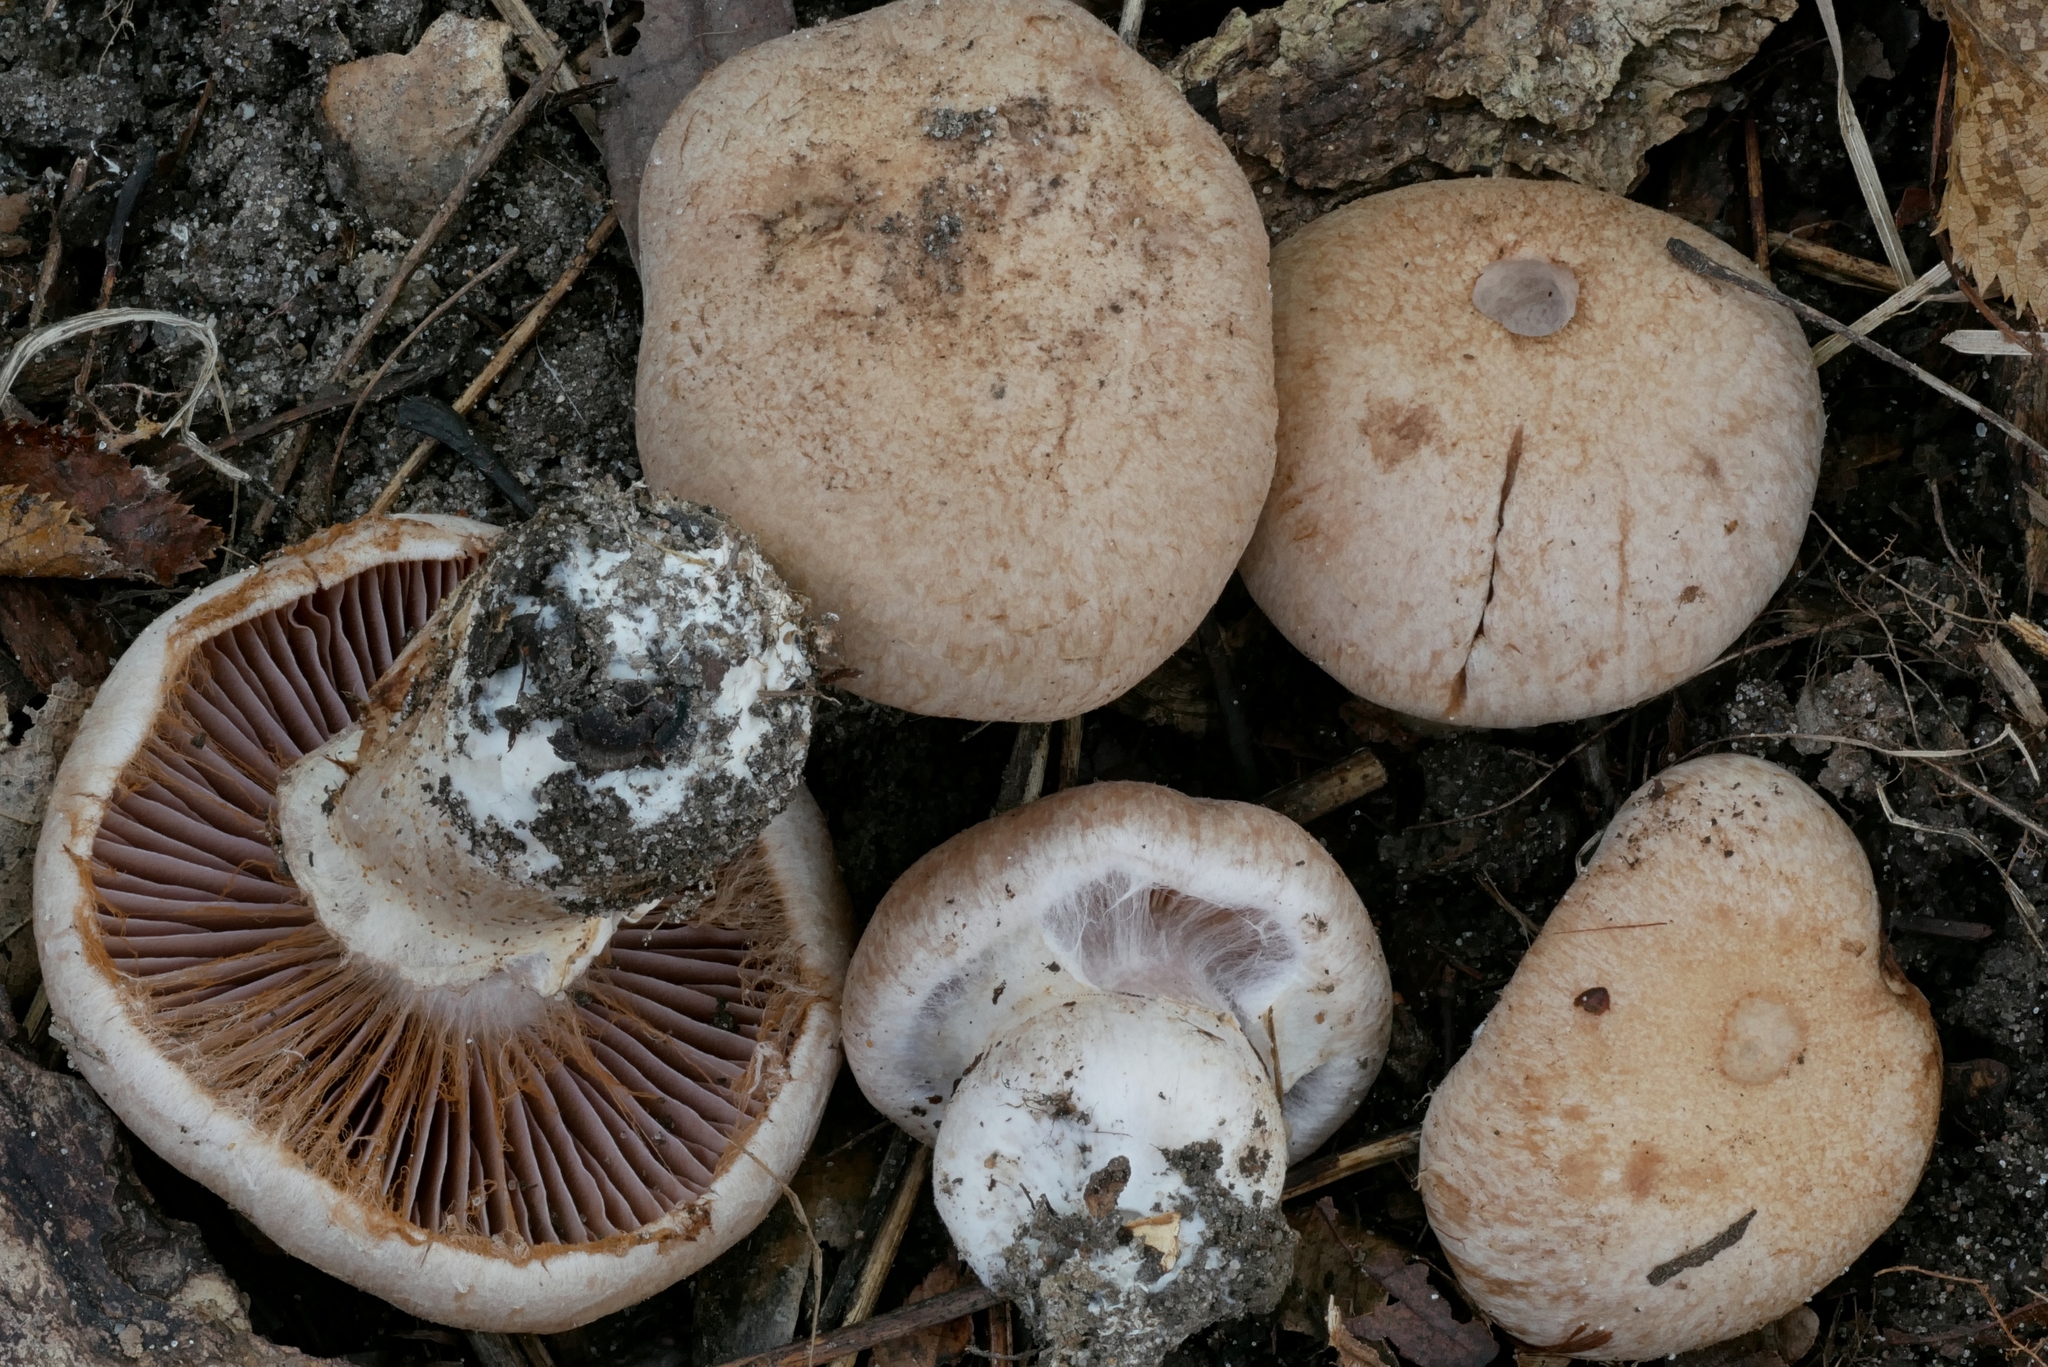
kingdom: Fungi
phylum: Basidiomycota
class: Agaricomycetes
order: Agaricales
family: Cortinariaceae
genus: Cortinarius
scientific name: Cortinarius subpulchrifolius
